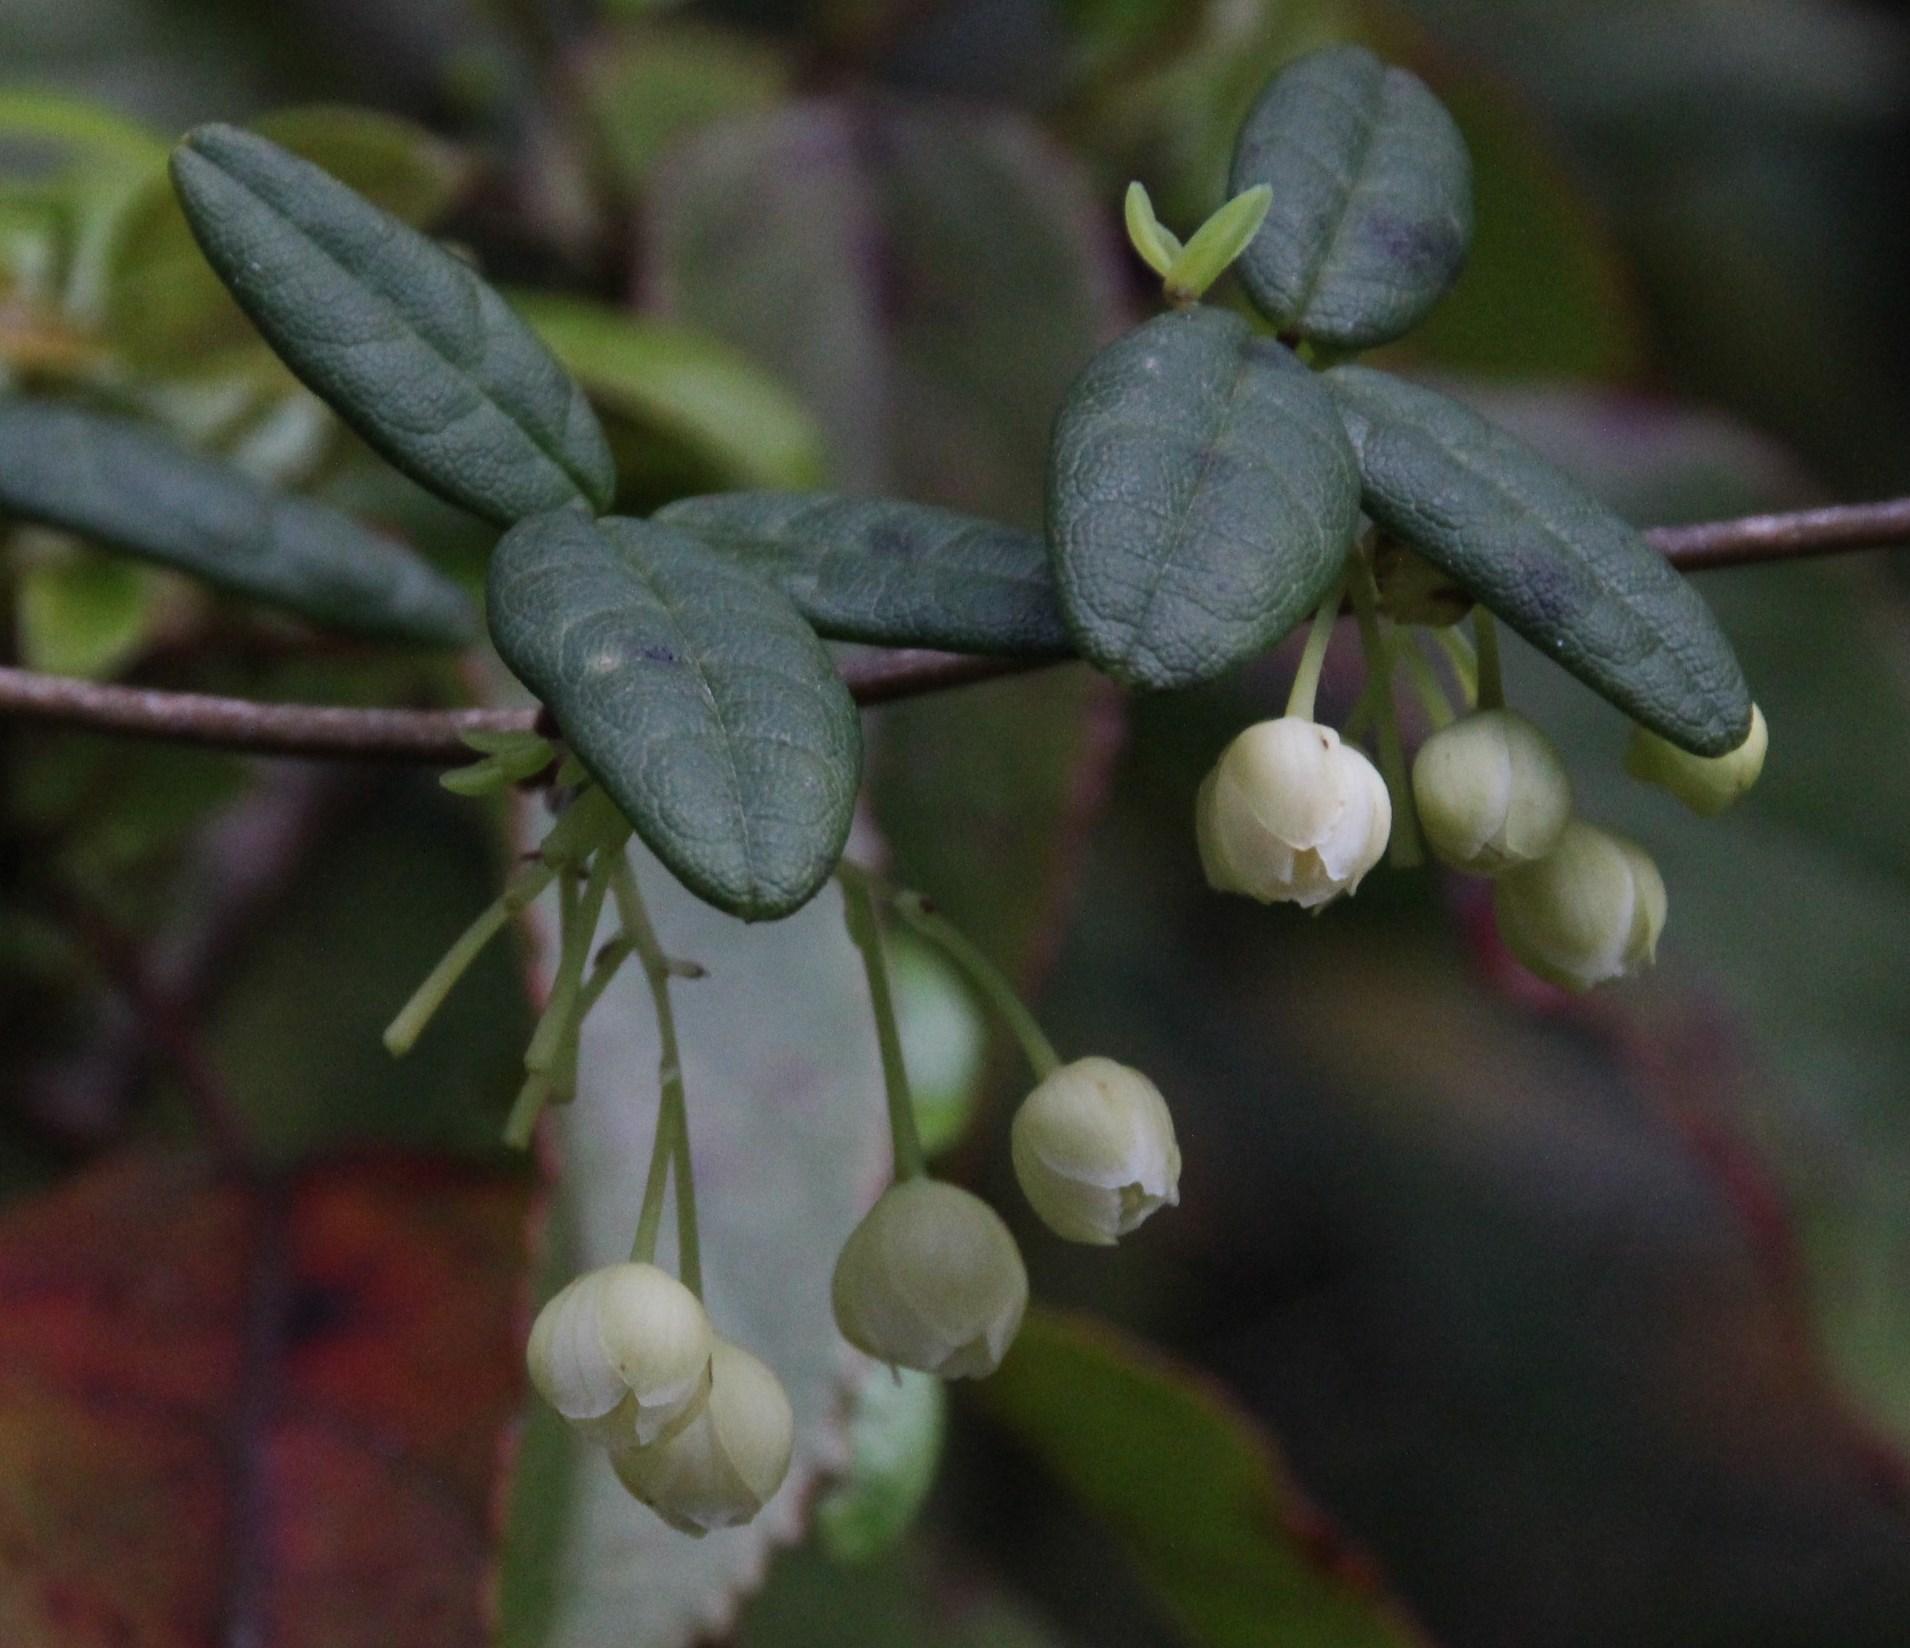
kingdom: Plantae
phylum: Tracheophyta
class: Magnoliopsida
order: Ranunculales
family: Lardizabalaceae
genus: Boquila
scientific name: Boquila trifoliolata
